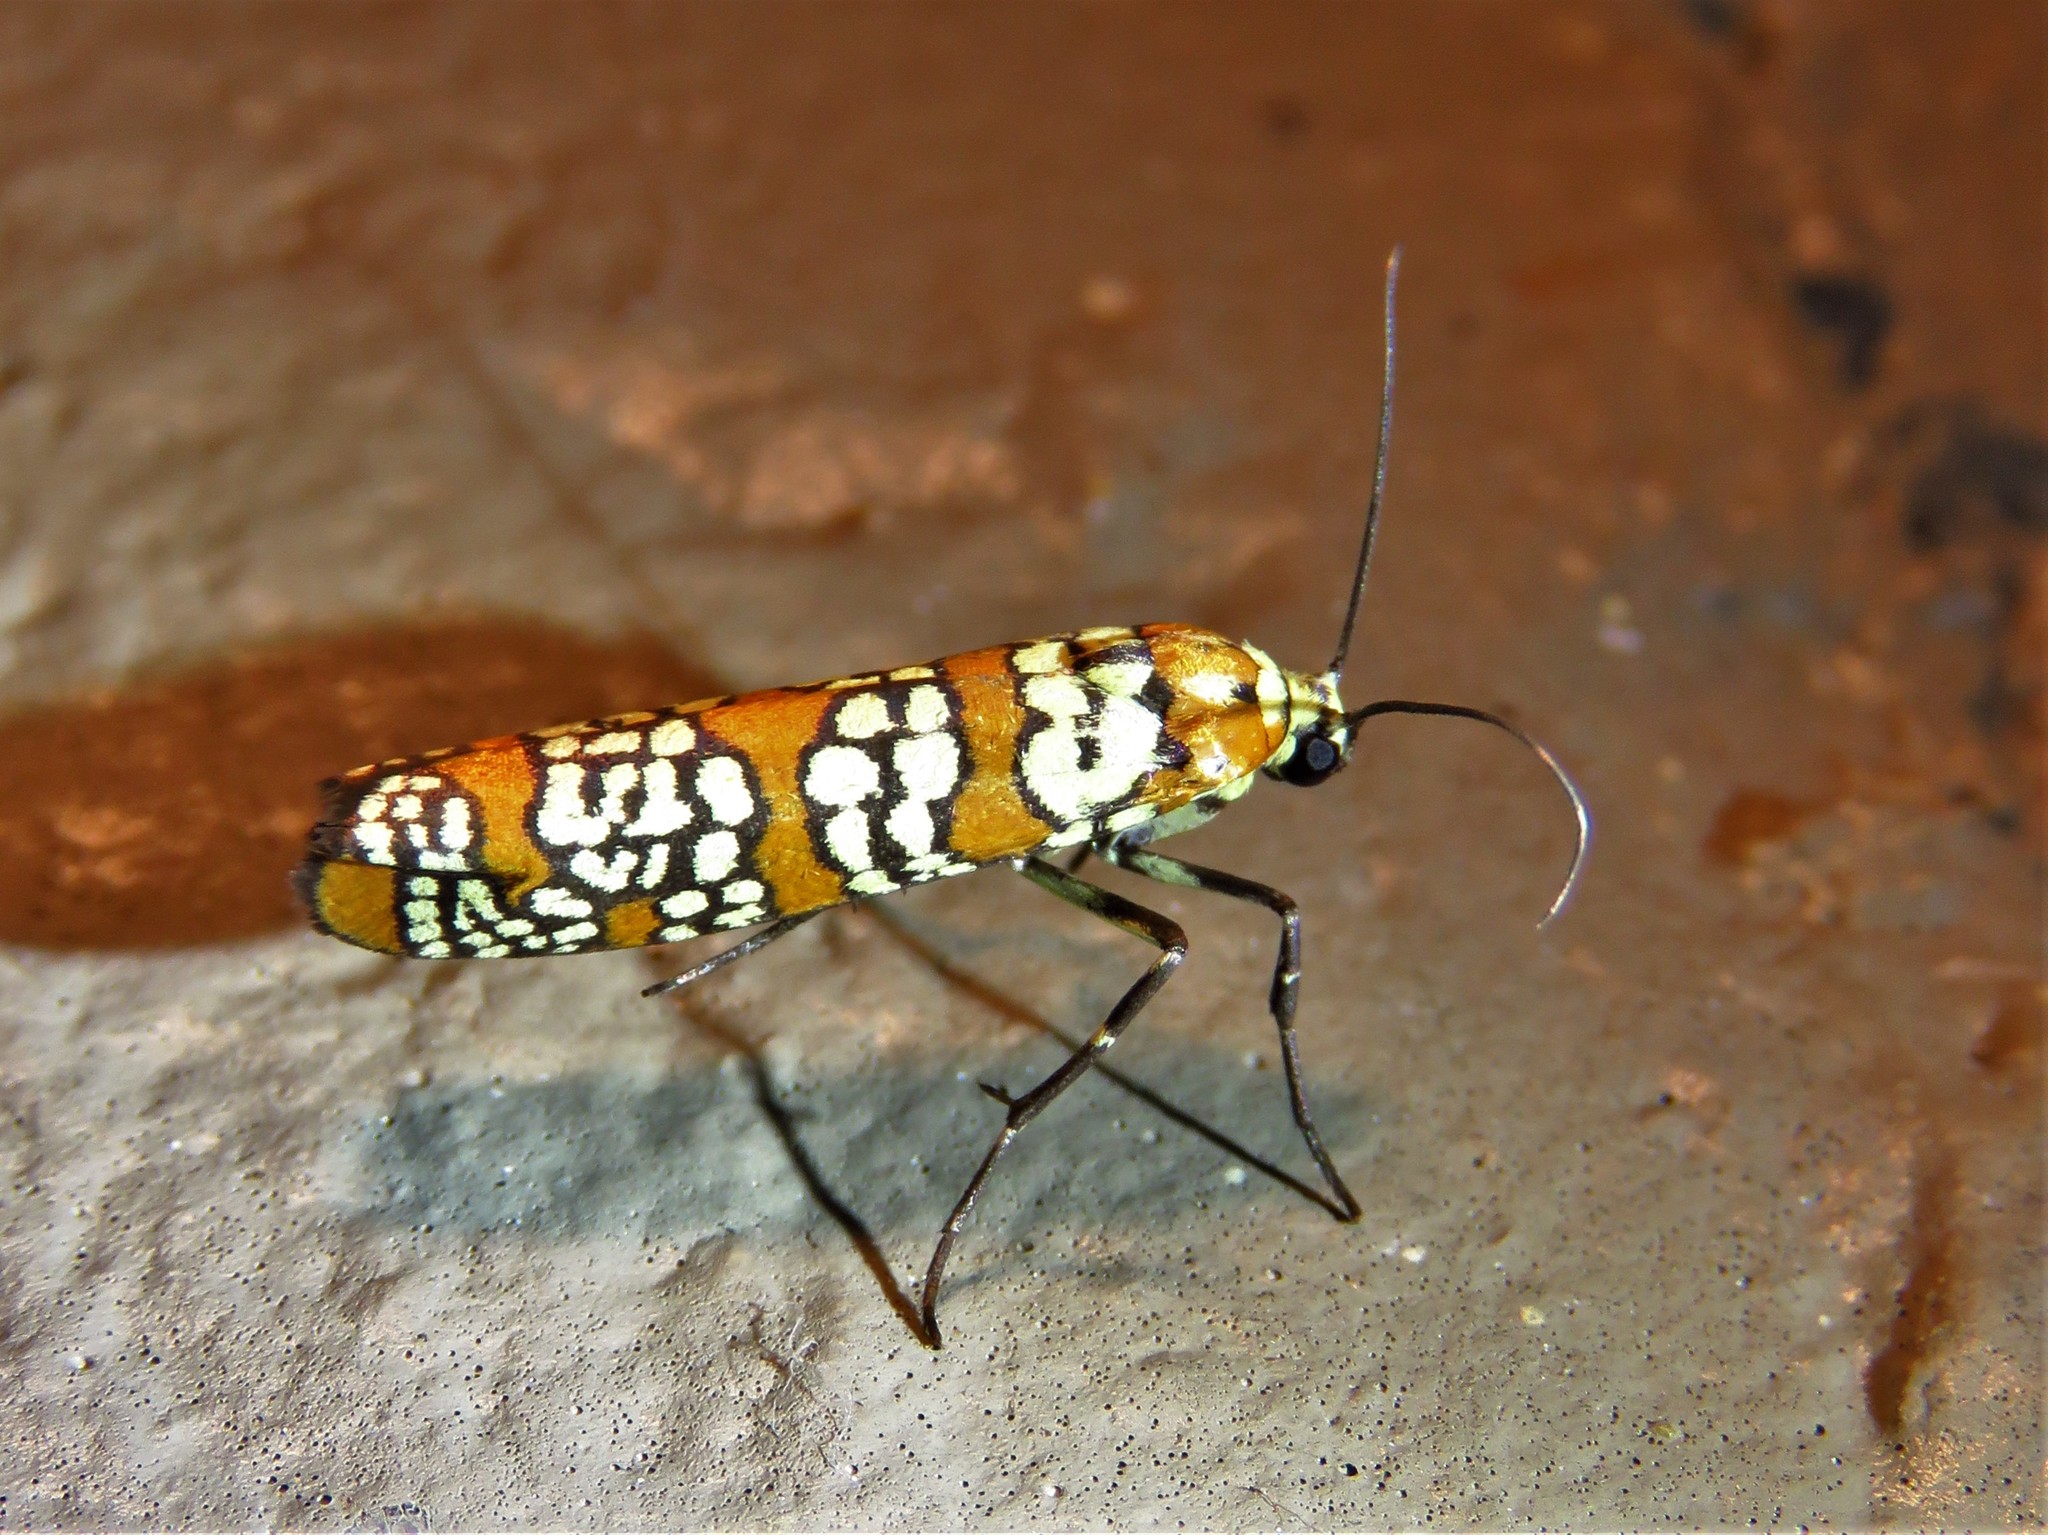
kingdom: Animalia
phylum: Arthropoda
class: Insecta
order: Lepidoptera
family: Attevidae
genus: Atteva
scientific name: Atteva punctella
